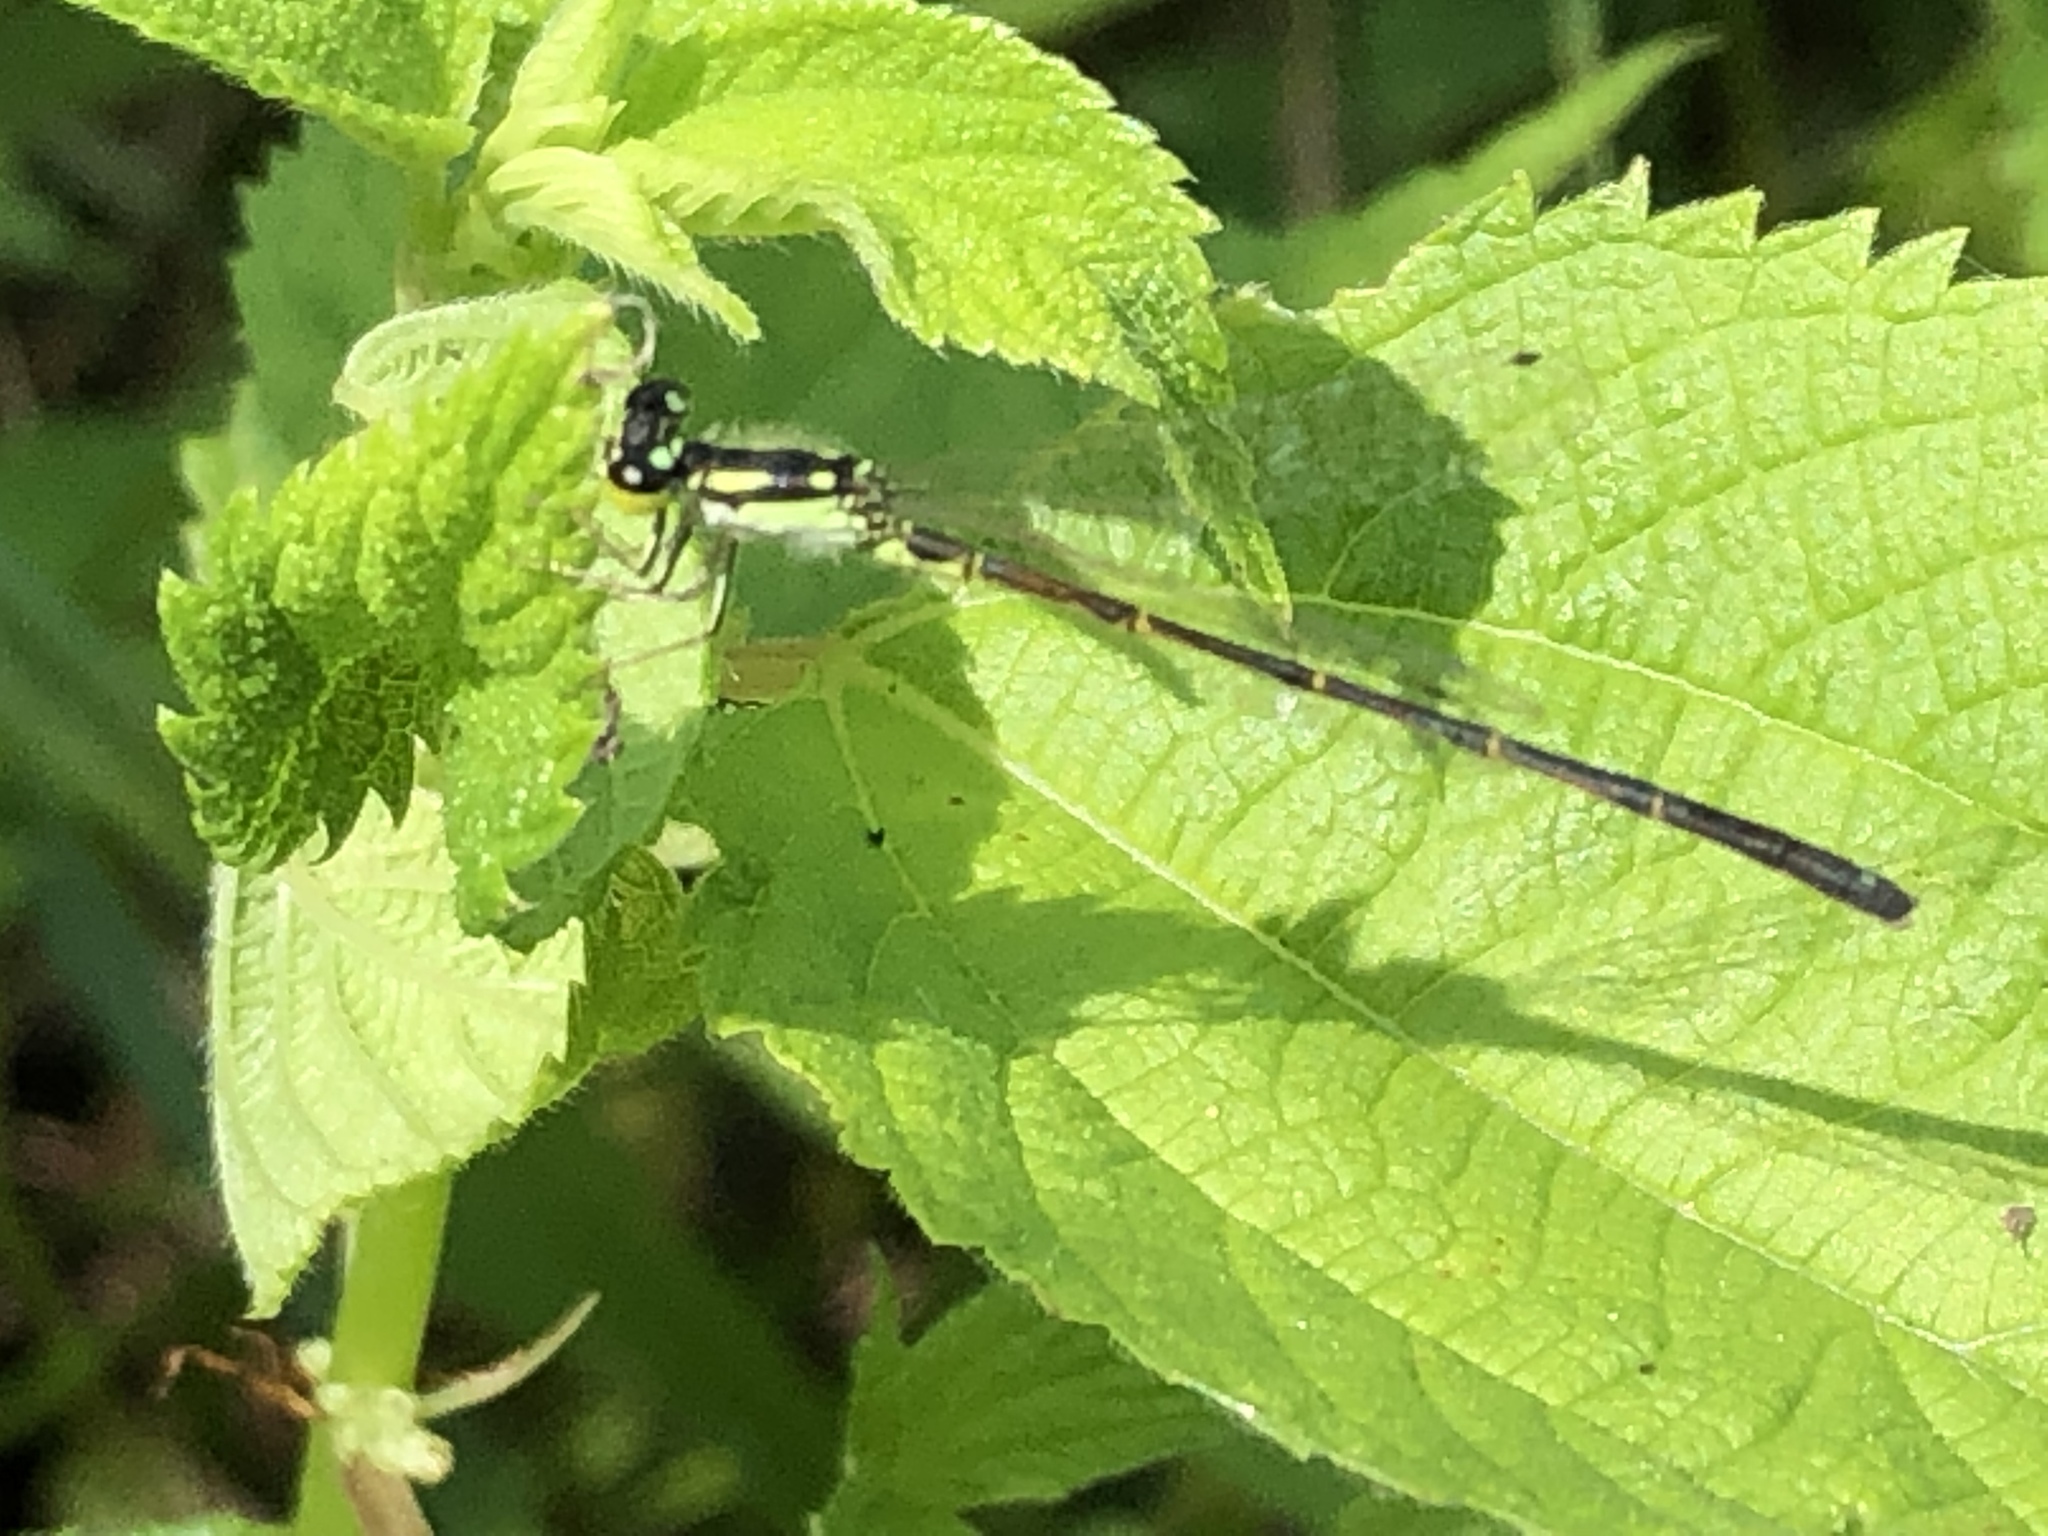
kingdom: Animalia
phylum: Arthropoda
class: Insecta
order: Odonata
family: Coenagrionidae
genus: Ischnura
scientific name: Ischnura posita
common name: Fragile forktail
